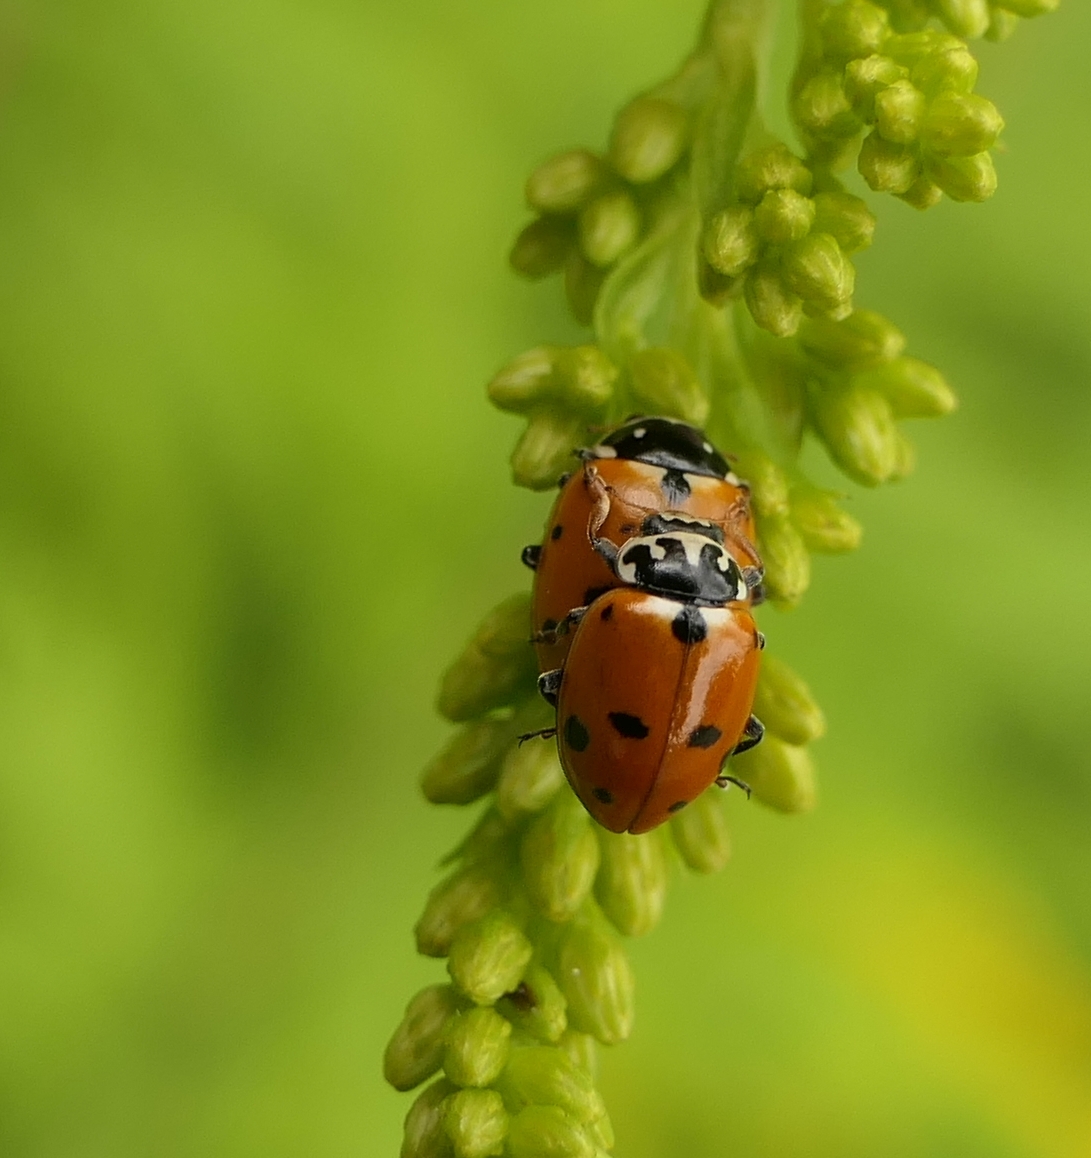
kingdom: Animalia
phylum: Arthropoda
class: Insecta
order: Coleoptera
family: Coccinellidae
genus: Hippodamia
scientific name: Hippodamia variegata
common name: Ladybird beetle
